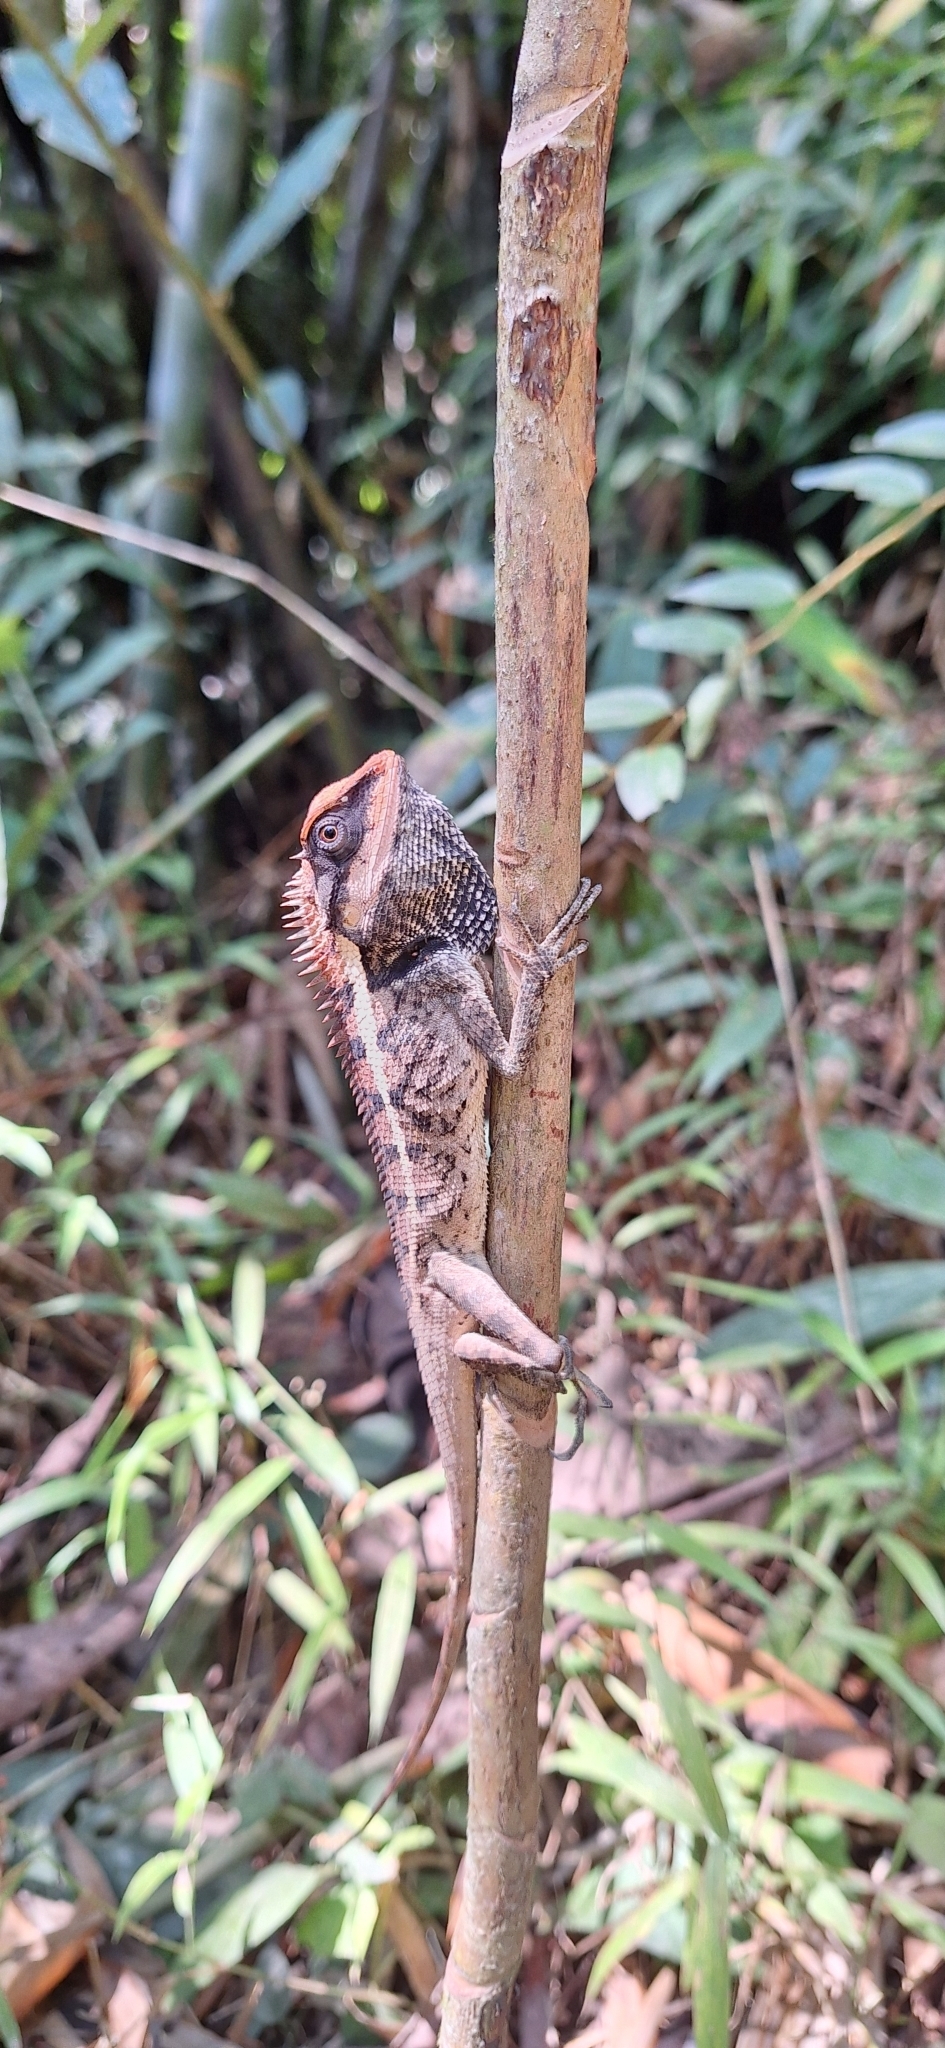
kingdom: Animalia
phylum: Chordata
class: Squamata
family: Agamidae
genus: Calotes
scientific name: Calotes emma
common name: Thailand bloodsucker
